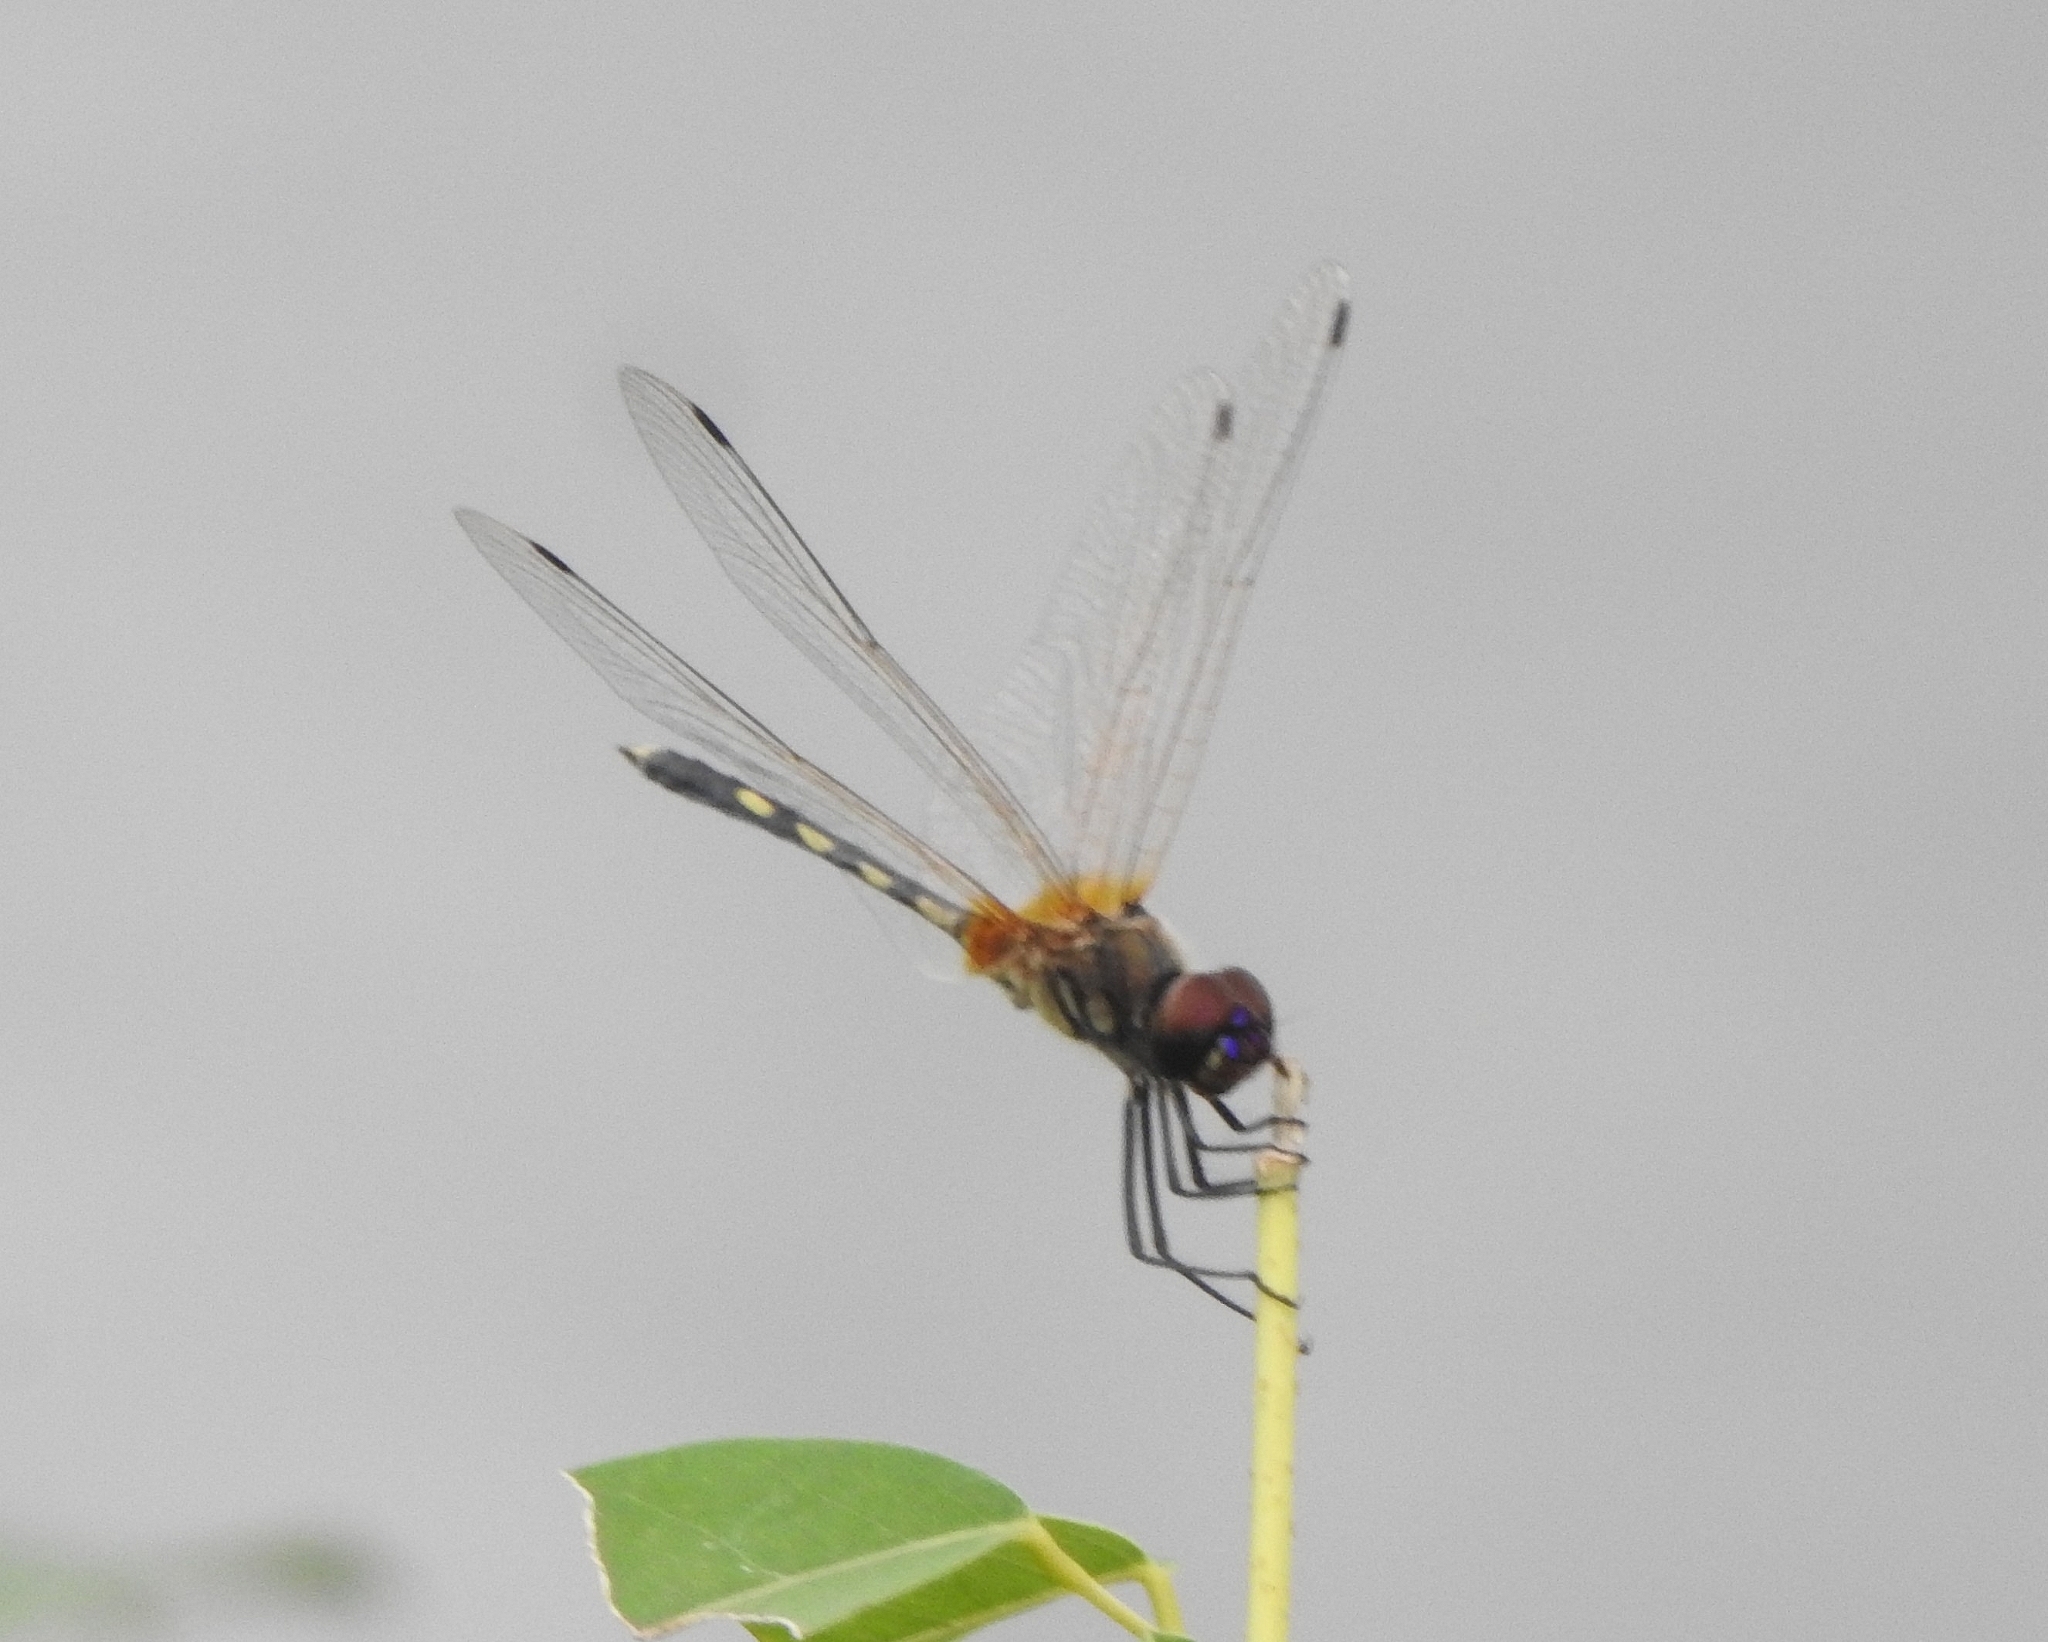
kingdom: Animalia
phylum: Arthropoda
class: Insecta
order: Odonata
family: Libellulidae
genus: Trithemis
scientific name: Trithemis pallidinervis
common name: Dancing dropwing
